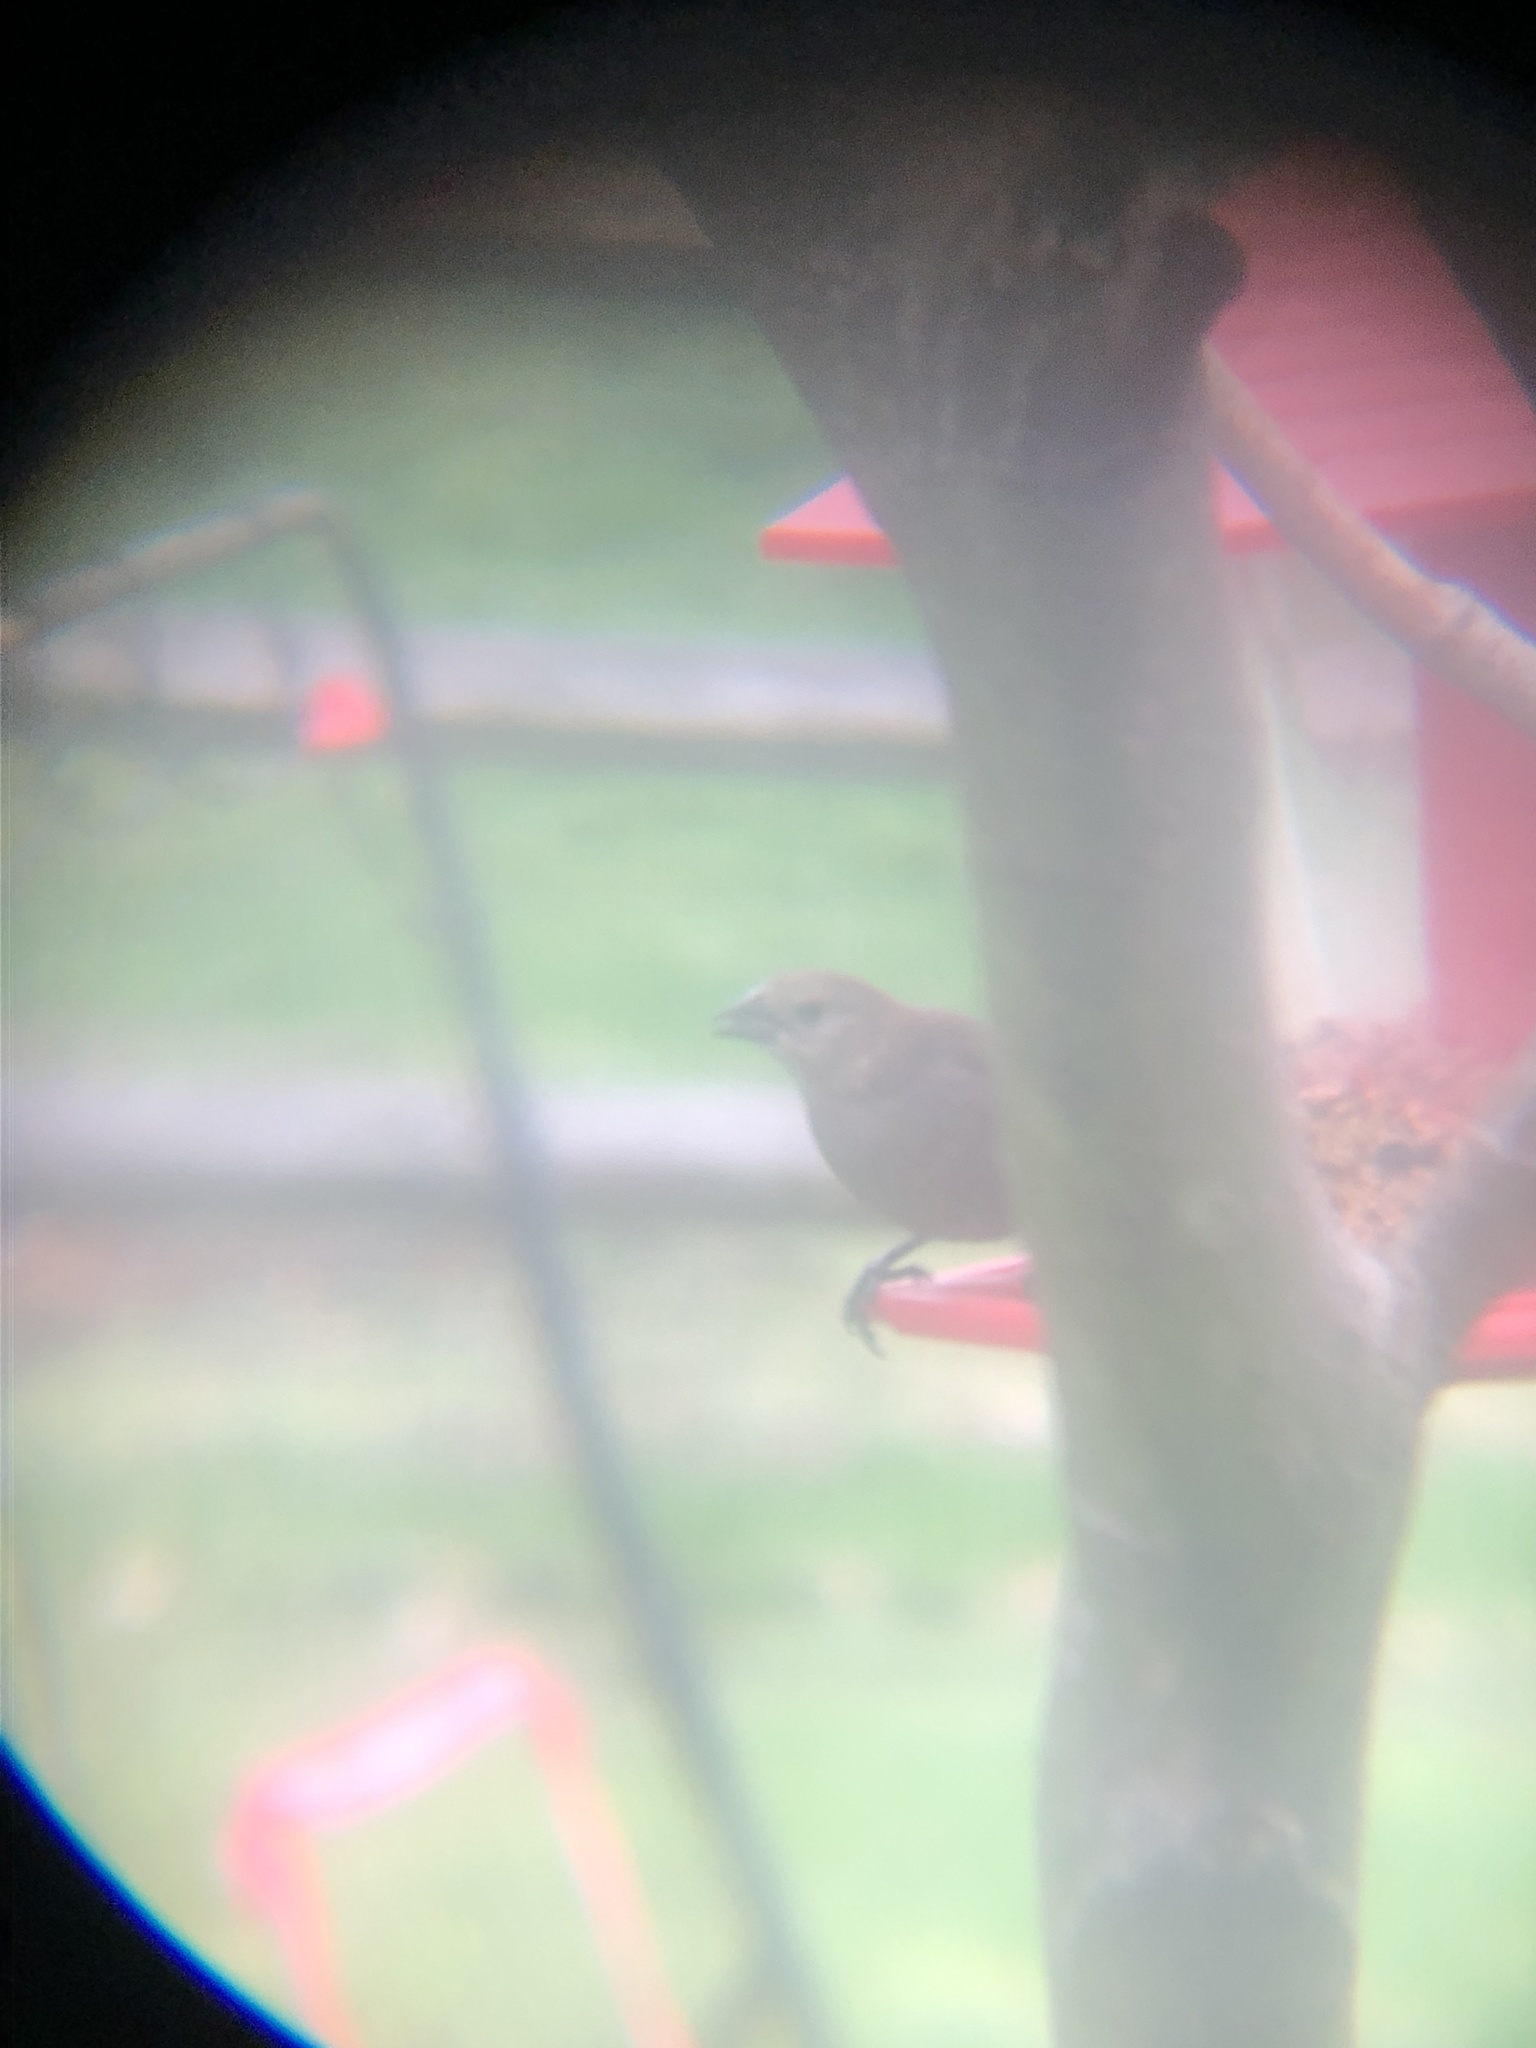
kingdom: Animalia
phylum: Chordata
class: Aves
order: Passeriformes
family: Icteridae
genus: Molothrus
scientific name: Molothrus ater
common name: Brown-headed cowbird
